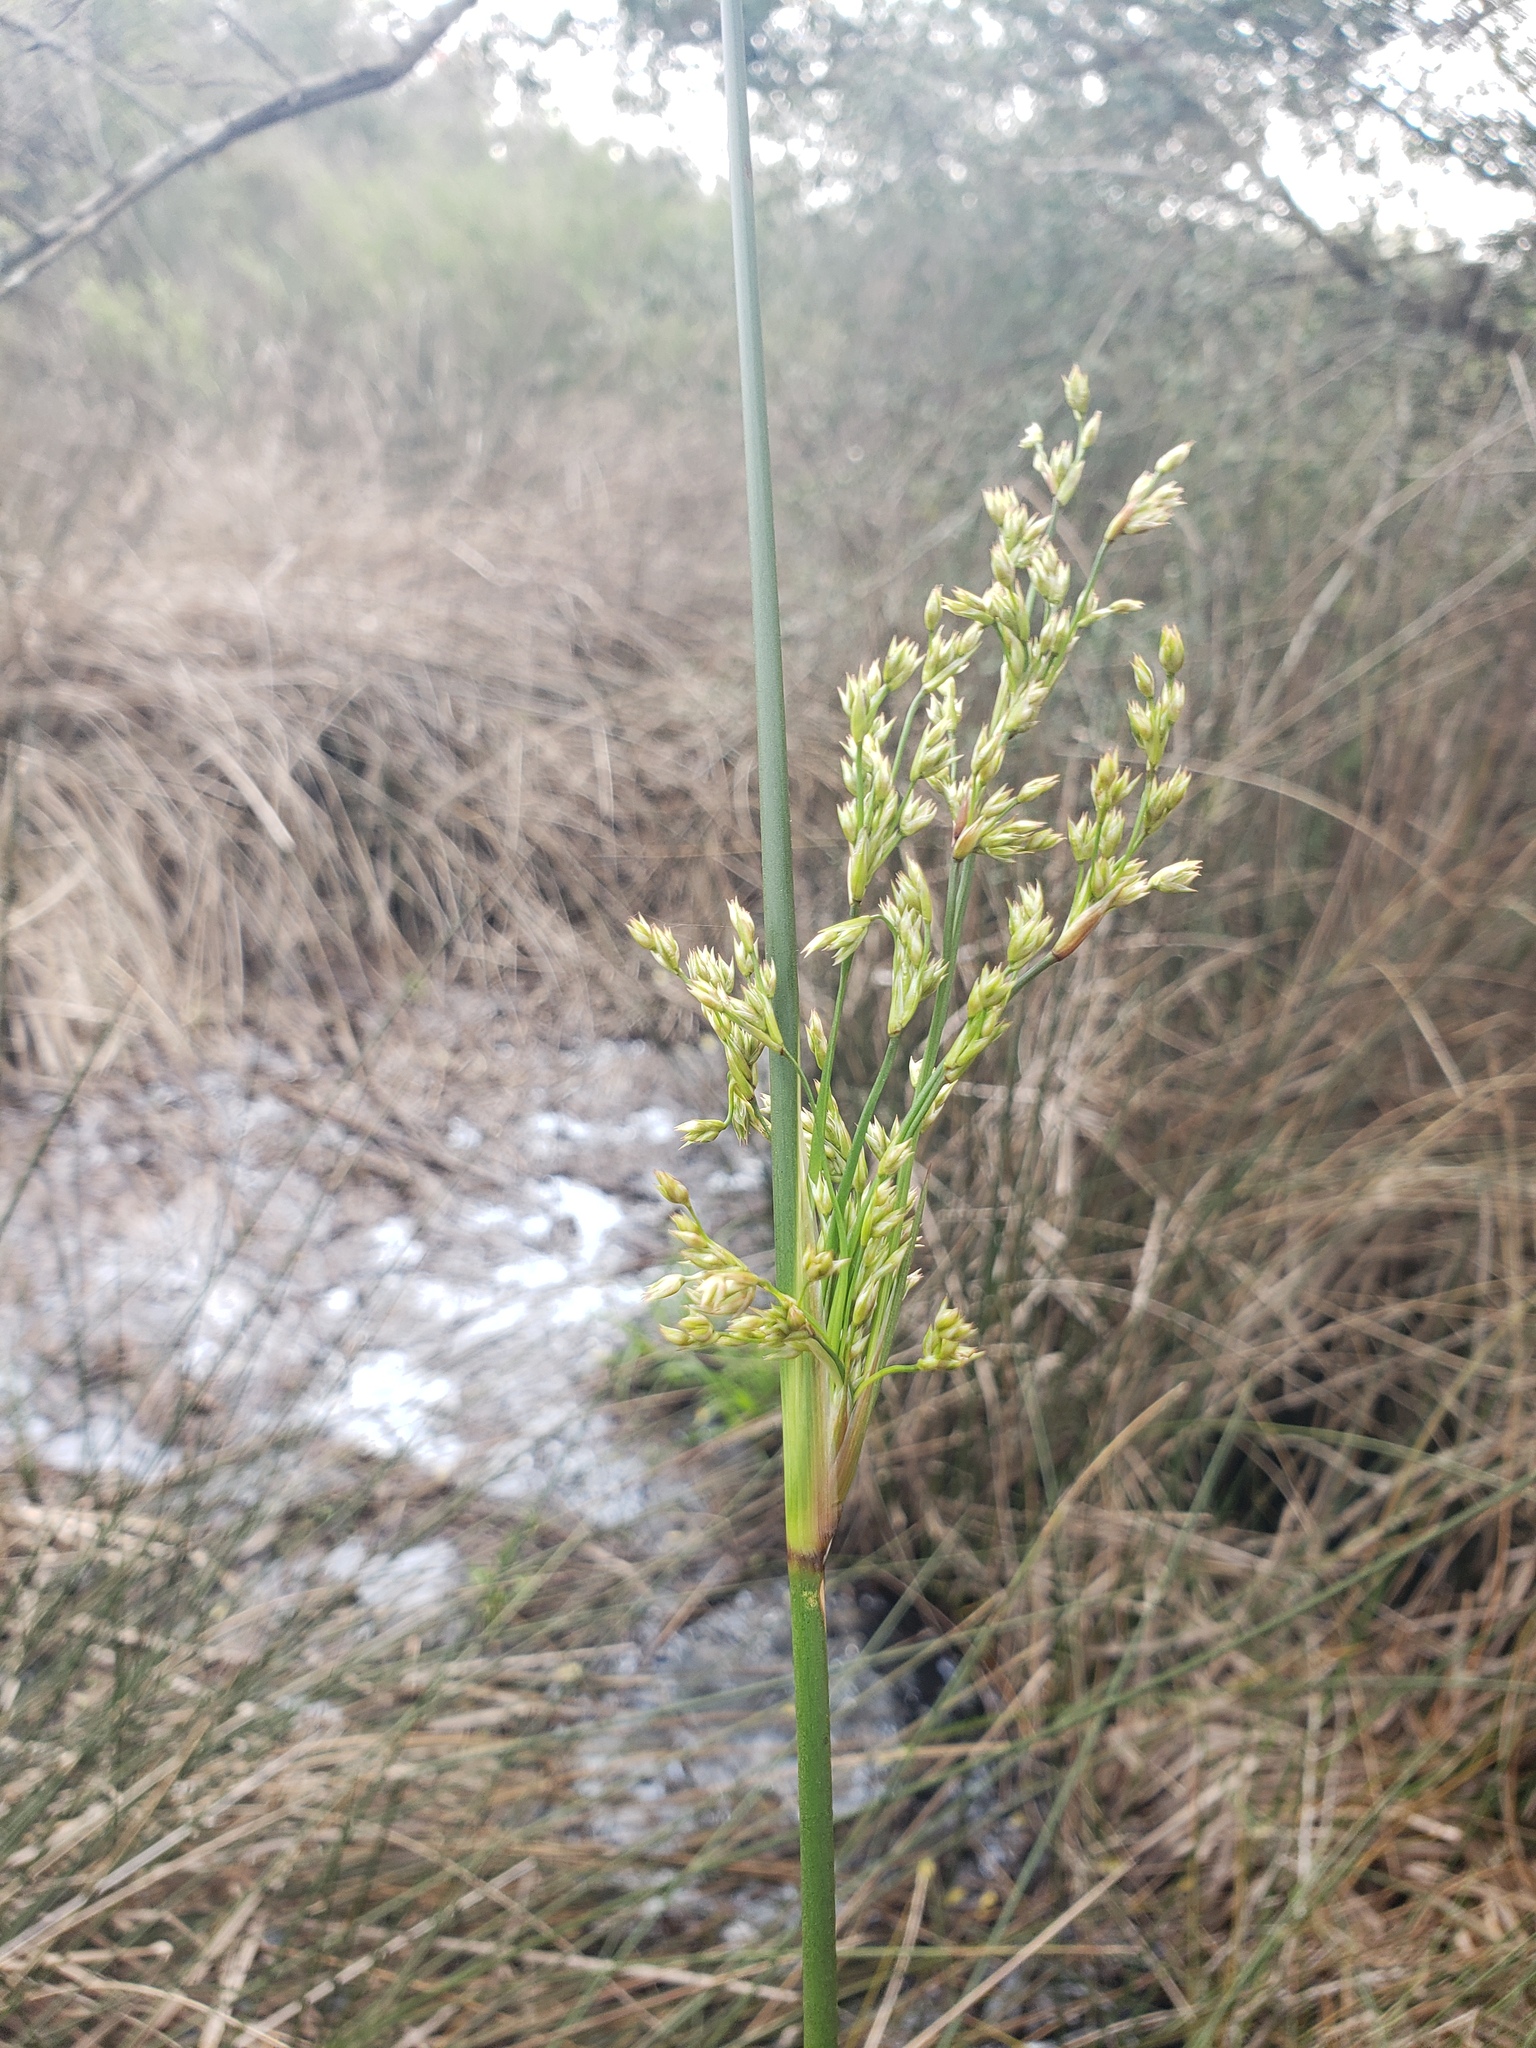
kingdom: Plantae
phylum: Tracheophyta
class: Liliopsida
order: Poales
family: Juncaceae
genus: Juncus
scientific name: Juncus roemerianus
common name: Roemer's rush
